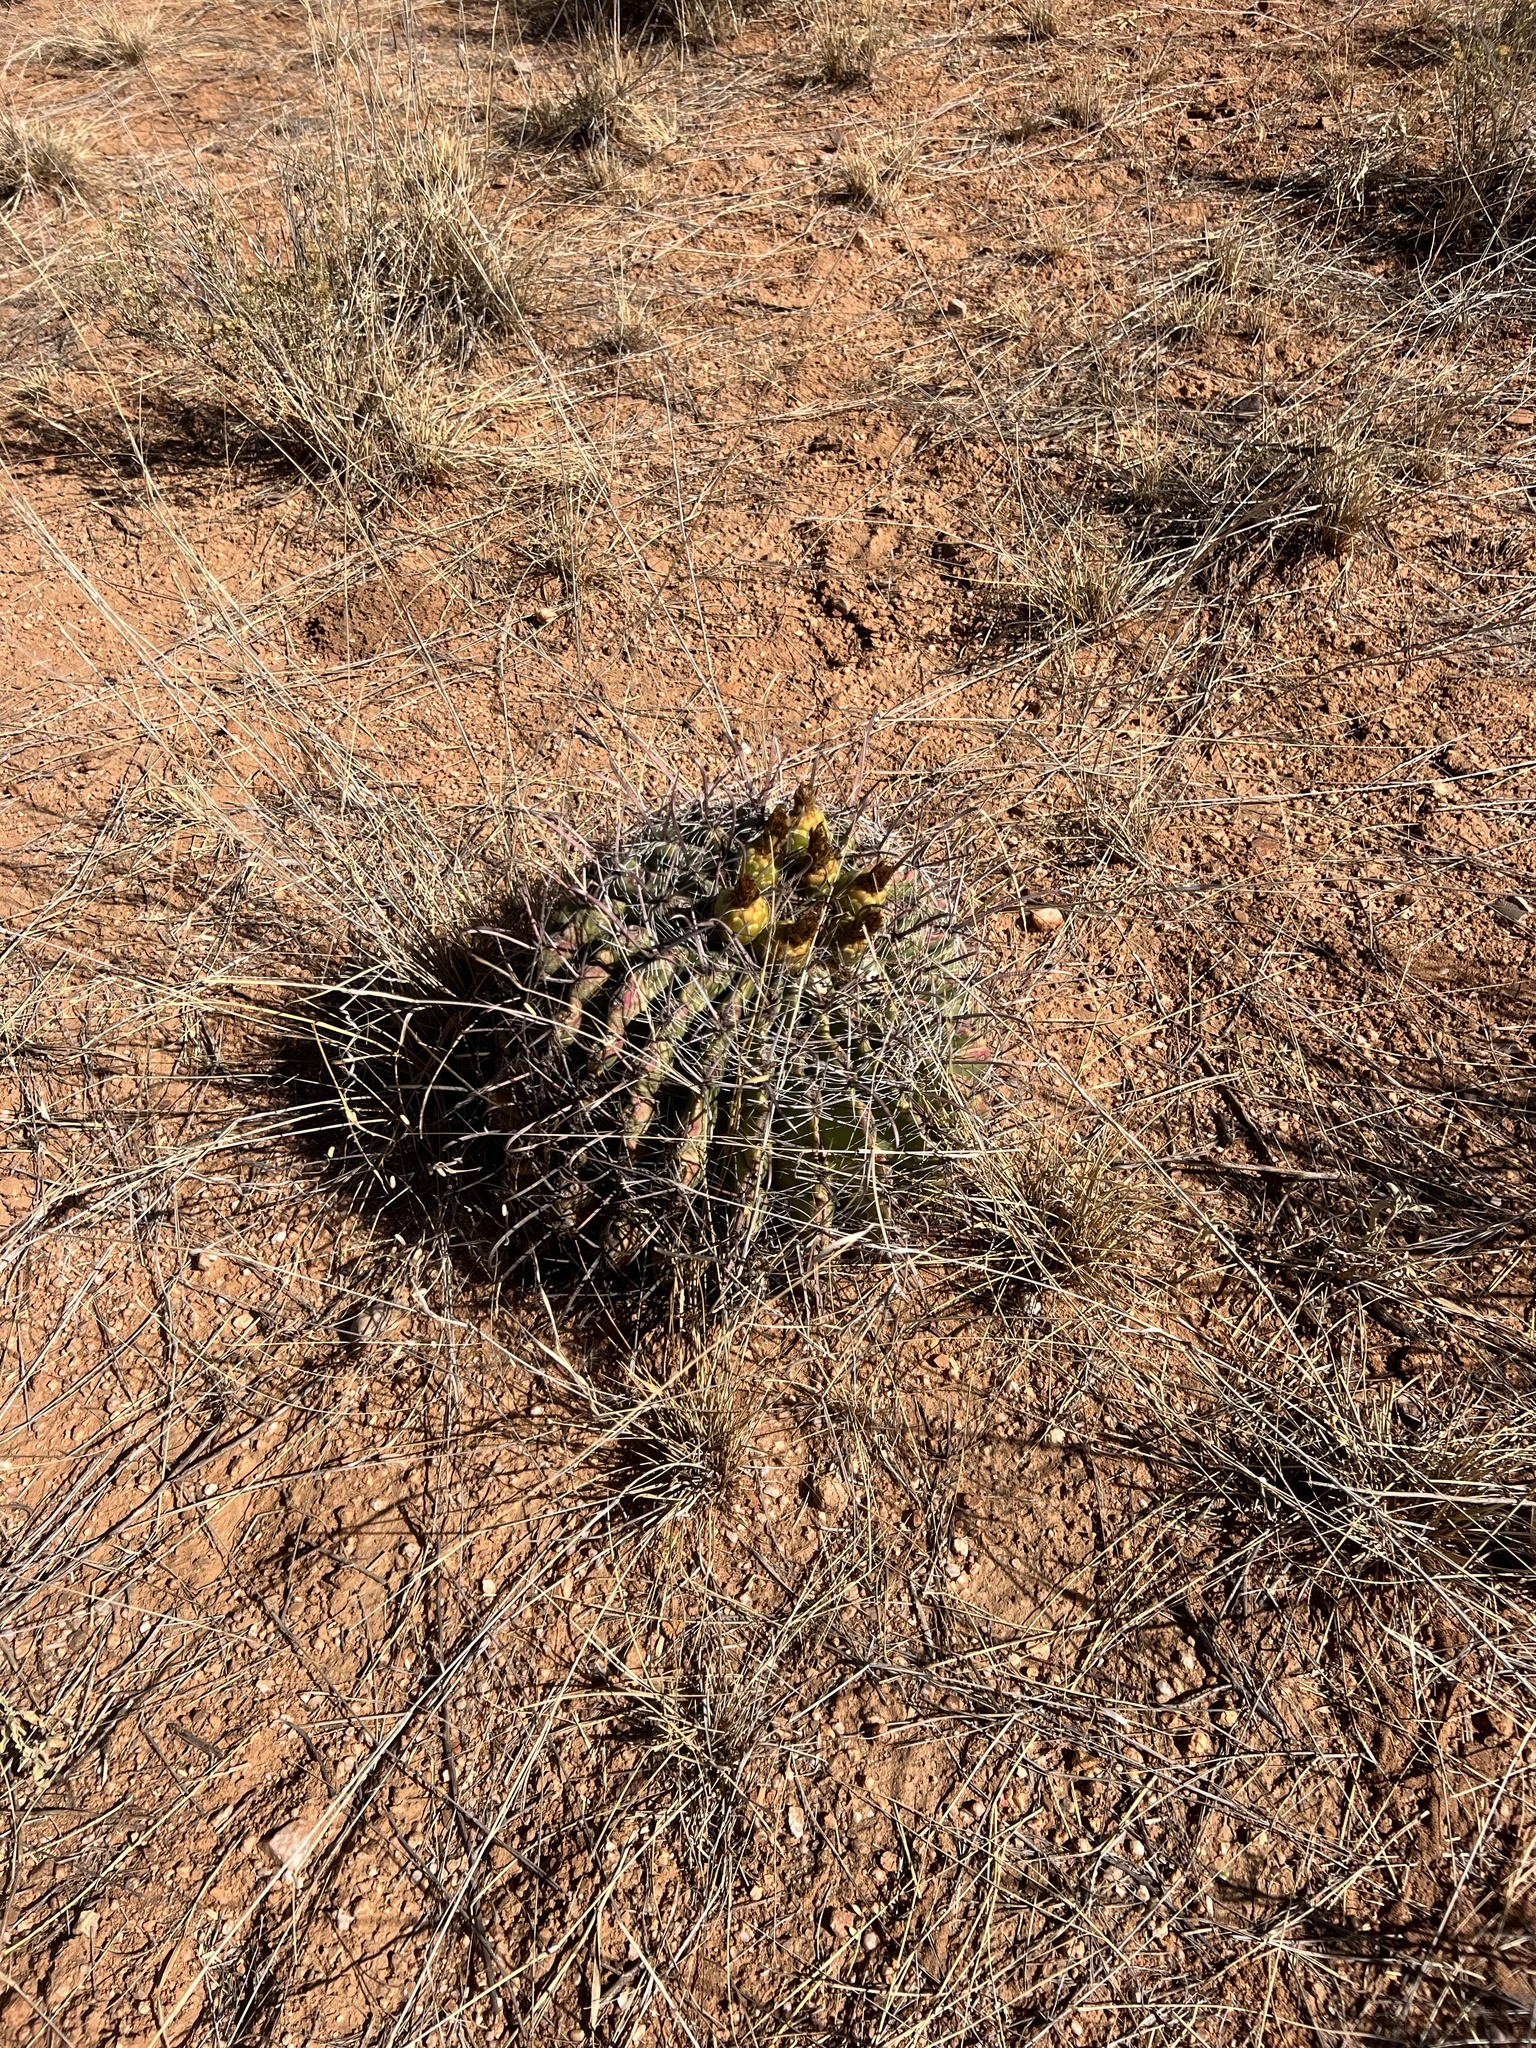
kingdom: Plantae
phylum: Tracheophyta
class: Magnoliopsida
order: Caryophyllales
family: Cactaceae
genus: Ferocactus
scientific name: Ferocactus wislizeni
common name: Candy barrel cactus
